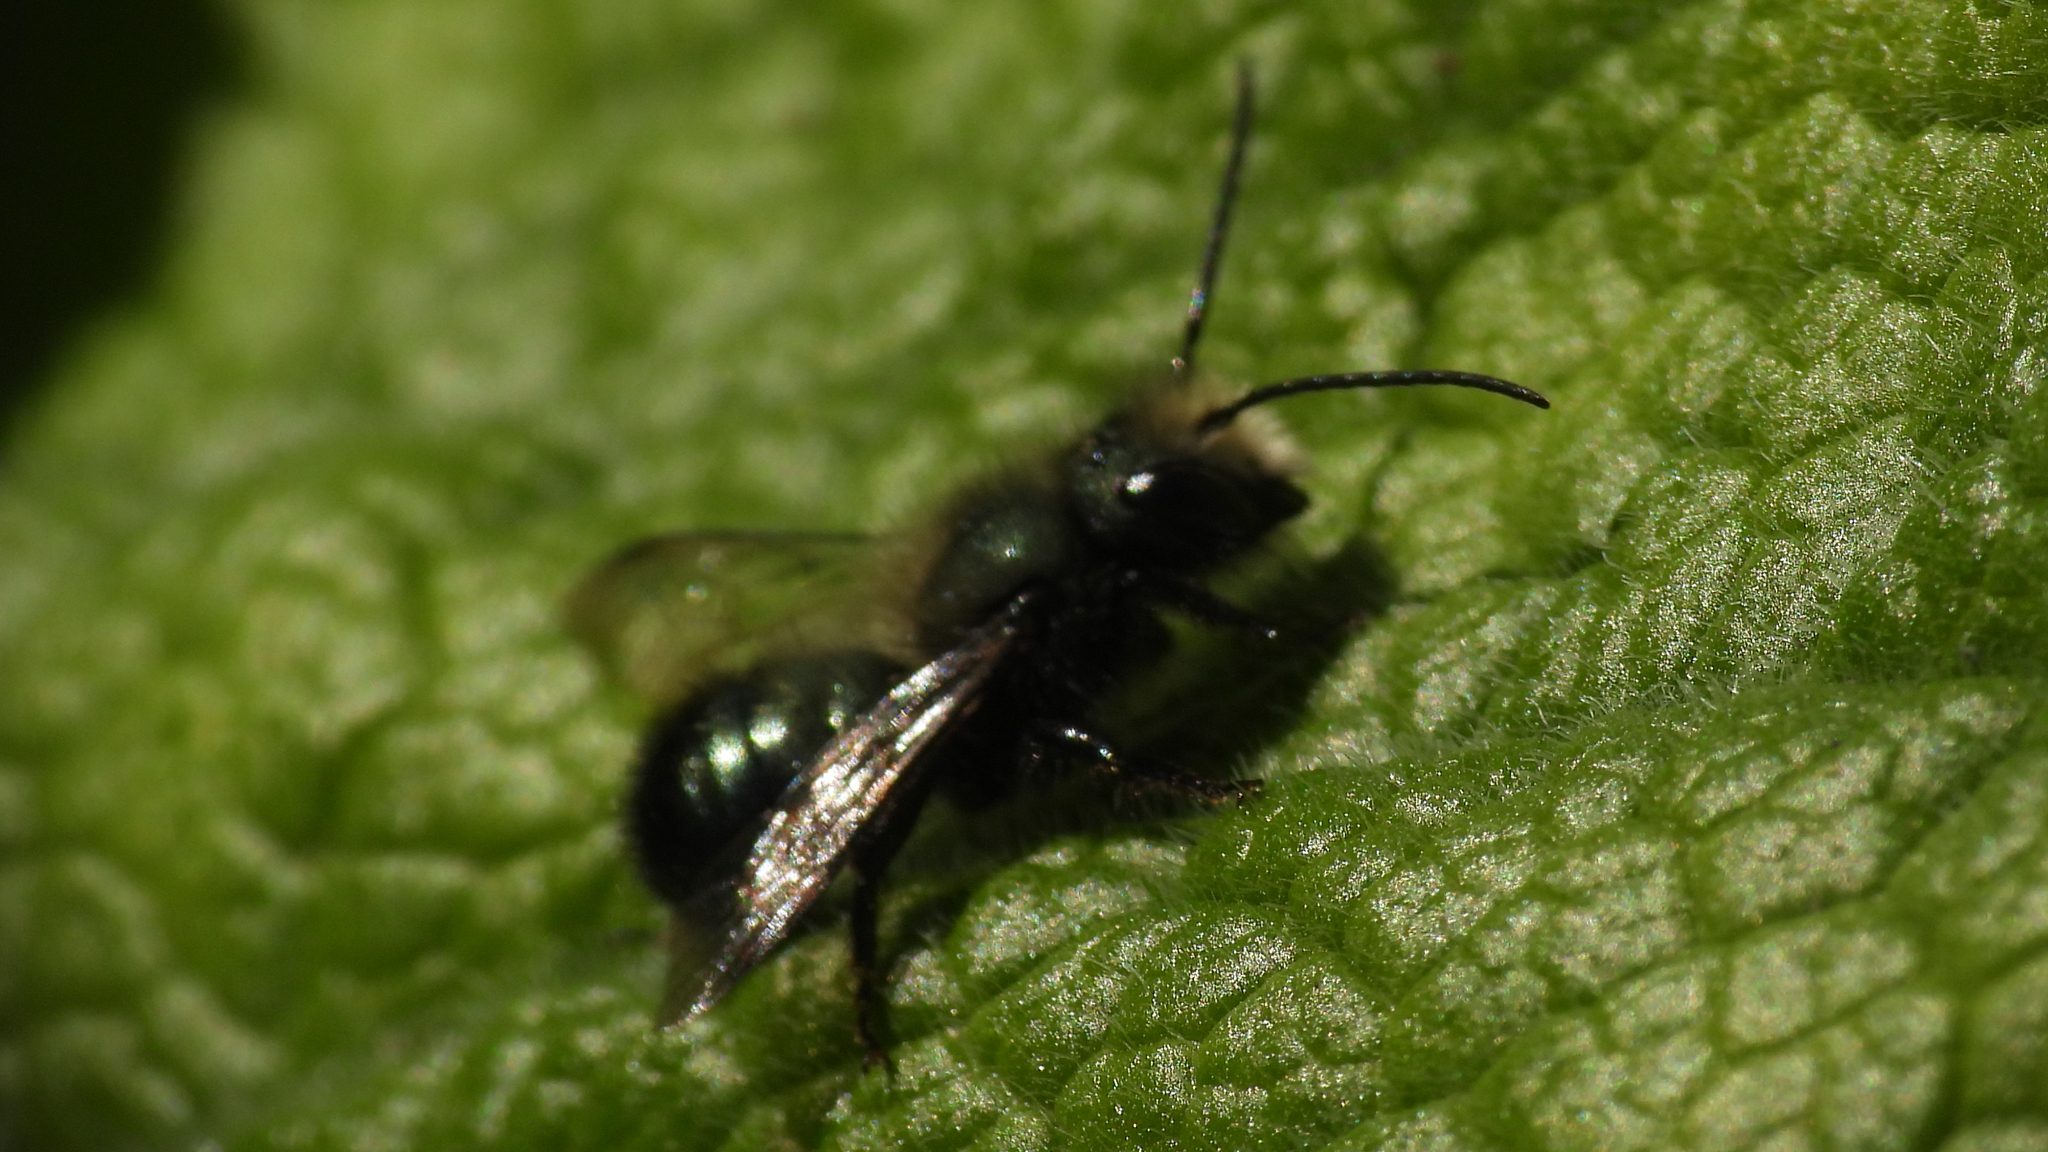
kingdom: Animalia
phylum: Arthropoda
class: Insecta
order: Hymenoptera
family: Megachilidae
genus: Osmia
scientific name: Osmia lignaria
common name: Blue orchard bee
